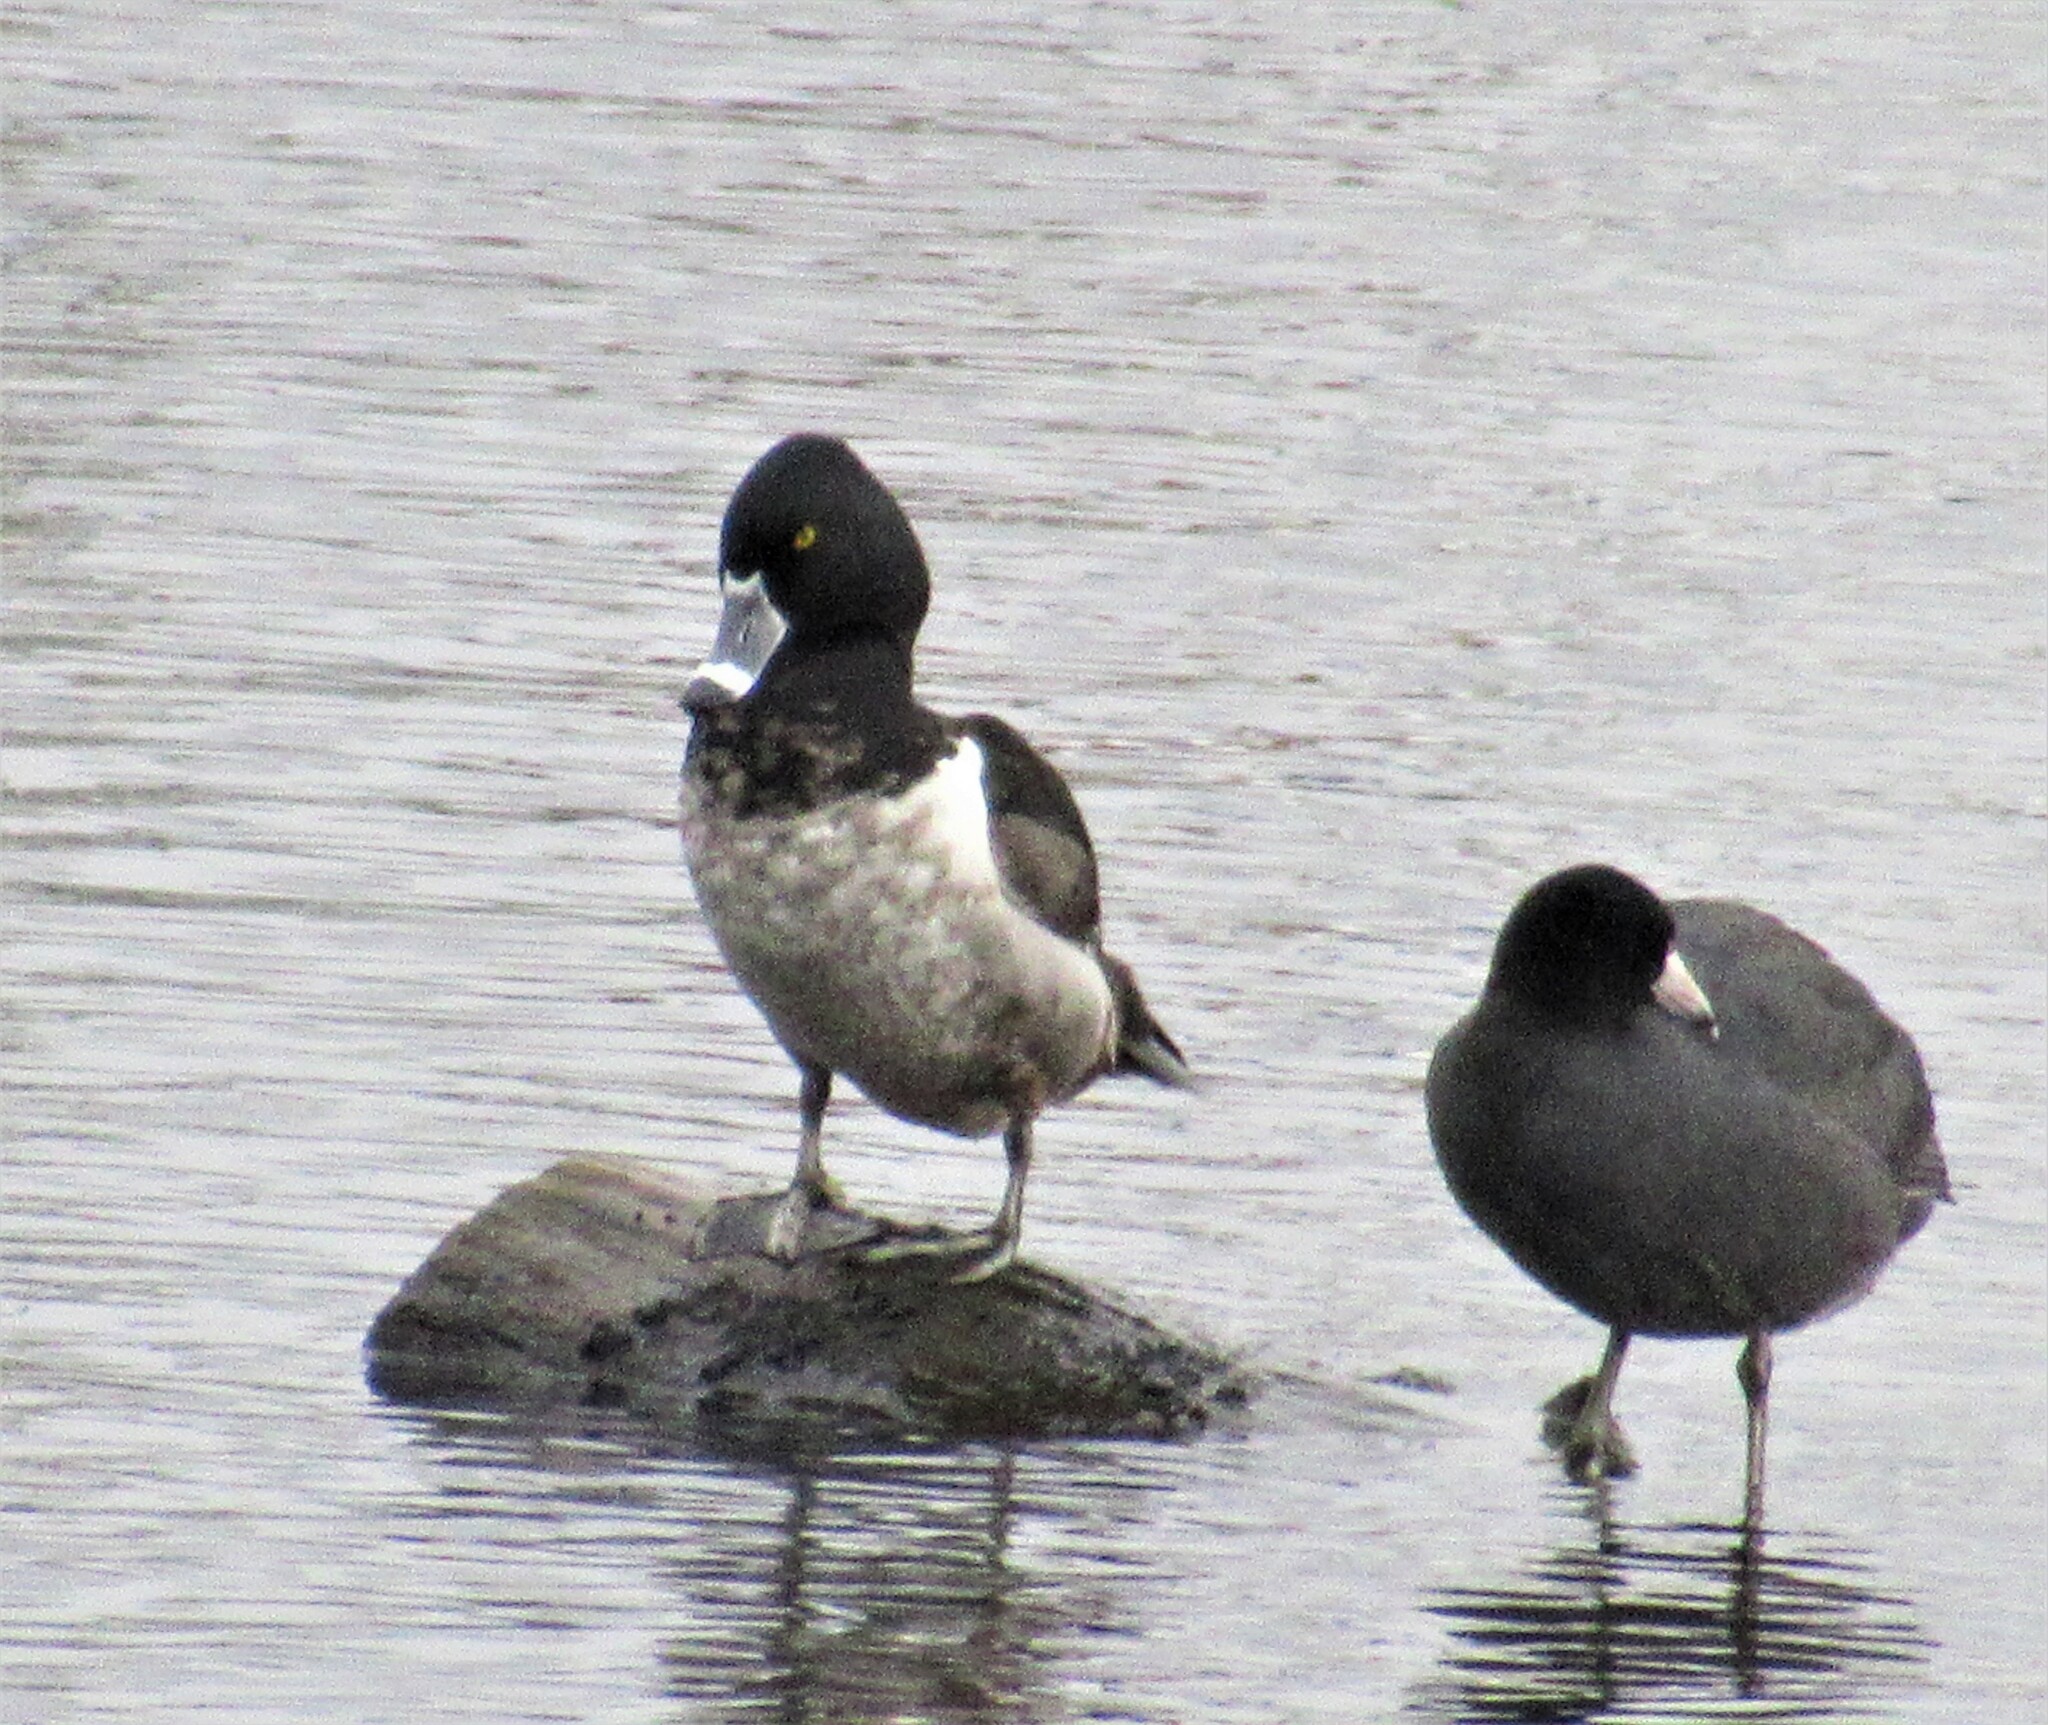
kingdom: Animalia
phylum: Chordata
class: Aves
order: Anseriformes
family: Anatidae
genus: Aythya
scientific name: Aythya collaris
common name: Ring-necked duck
